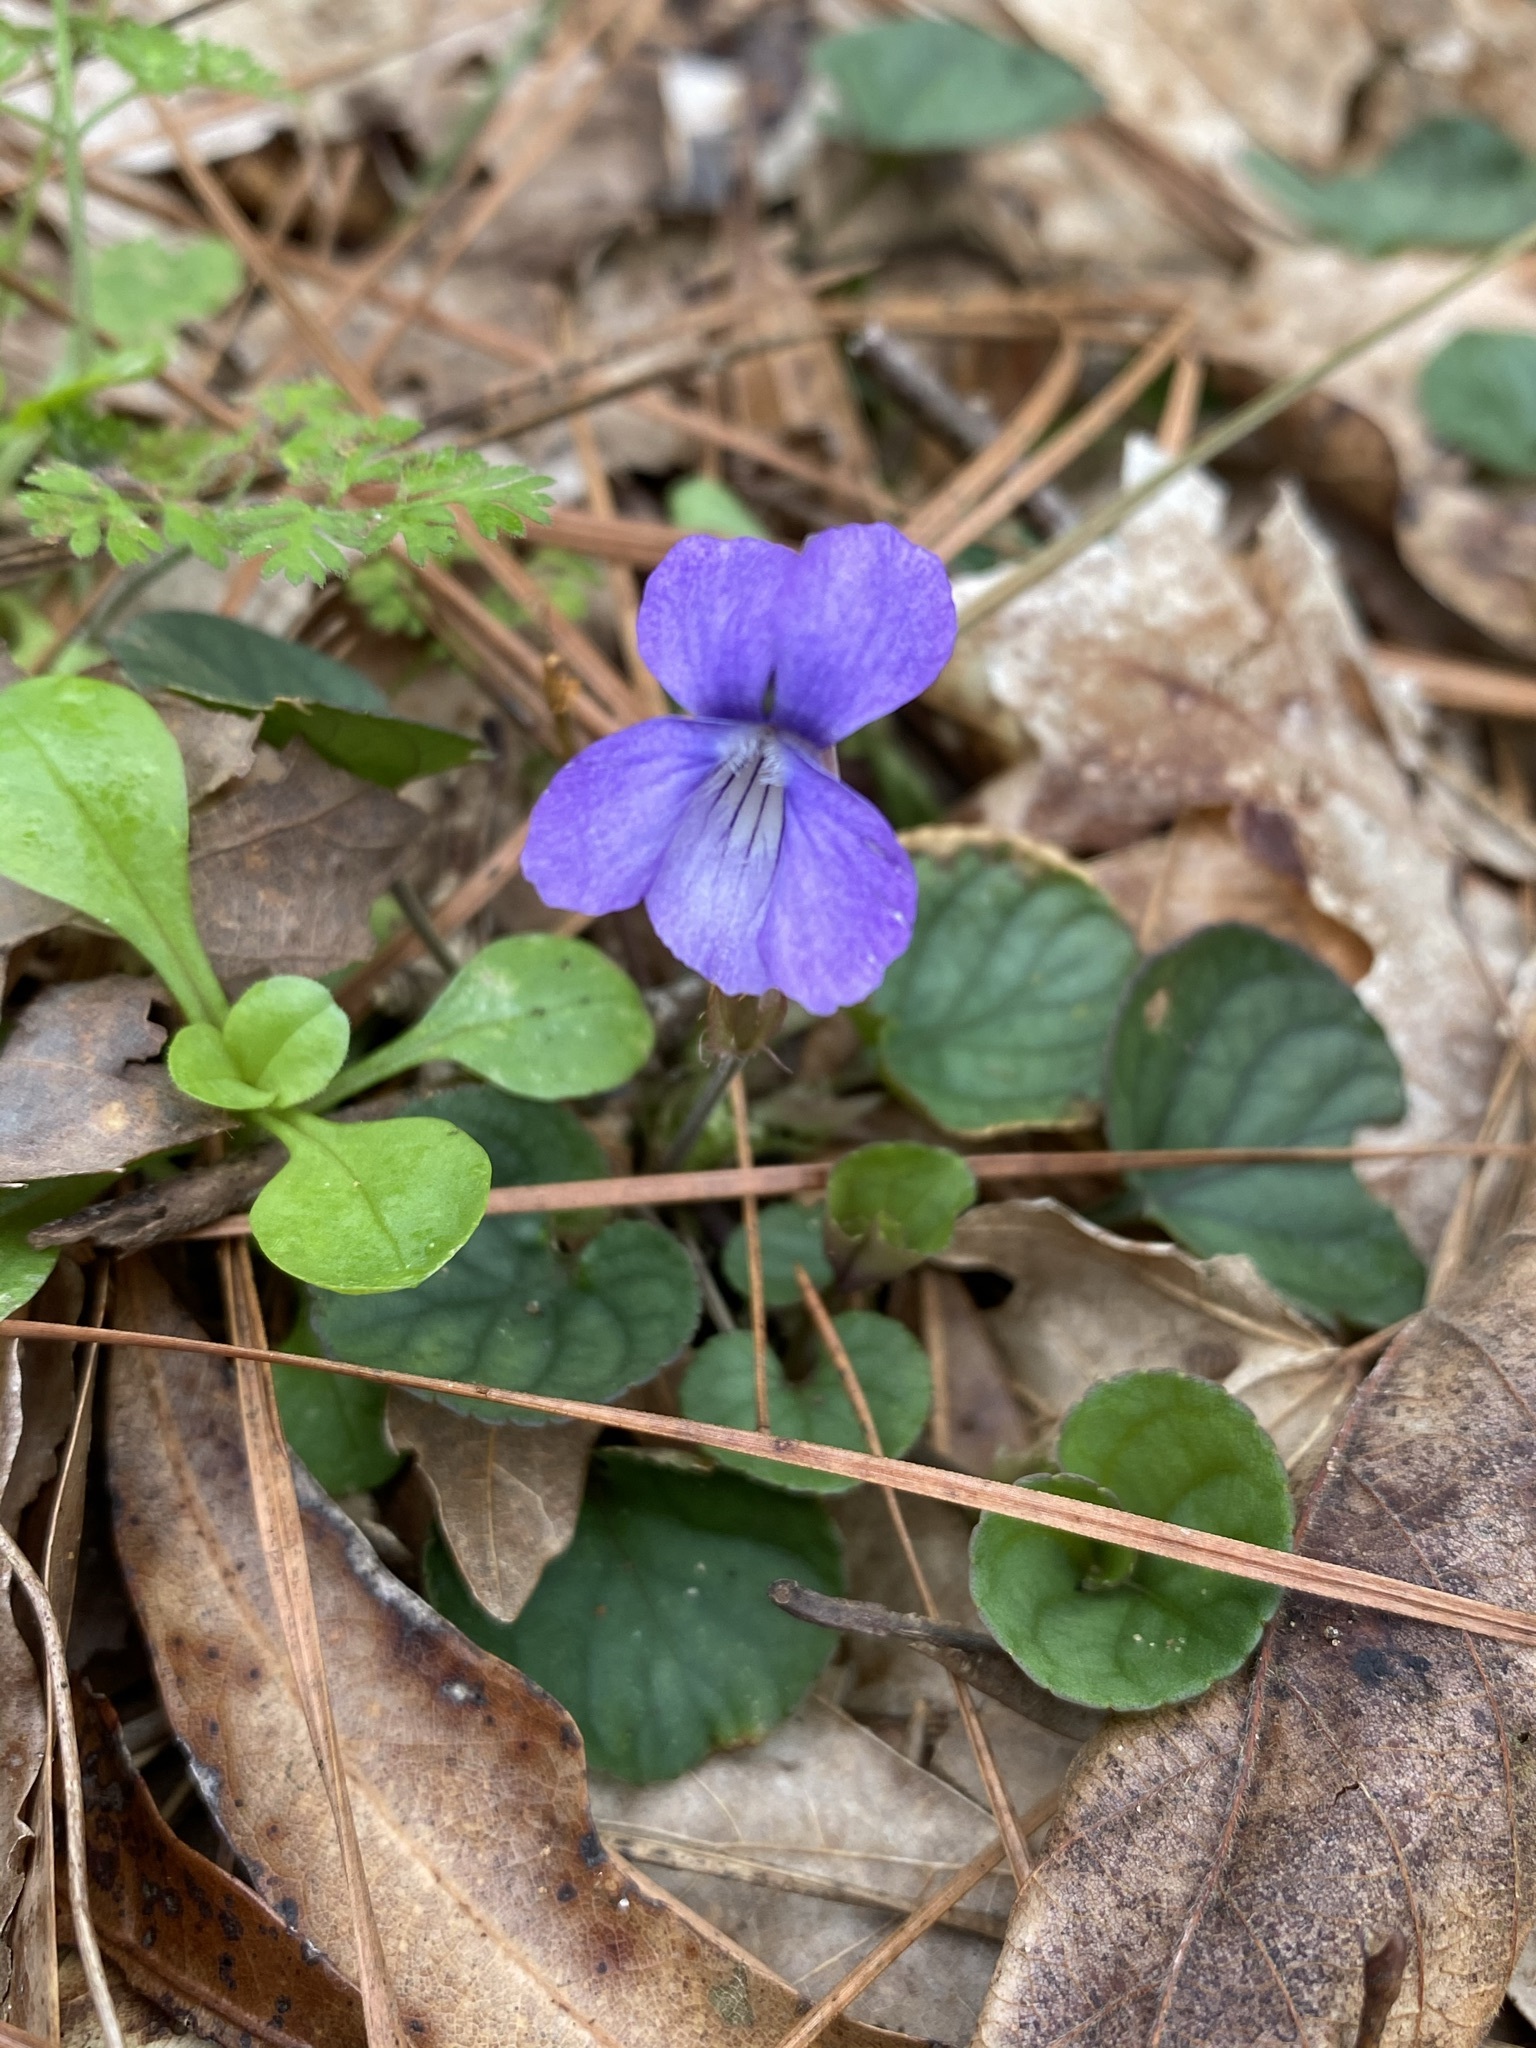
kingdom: Plantae
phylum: Tracheophyta
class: Magnoliopsida
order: Malpighiales
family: Violaceae
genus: Viola
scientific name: Viola walteri
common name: Prostrate southern violet
